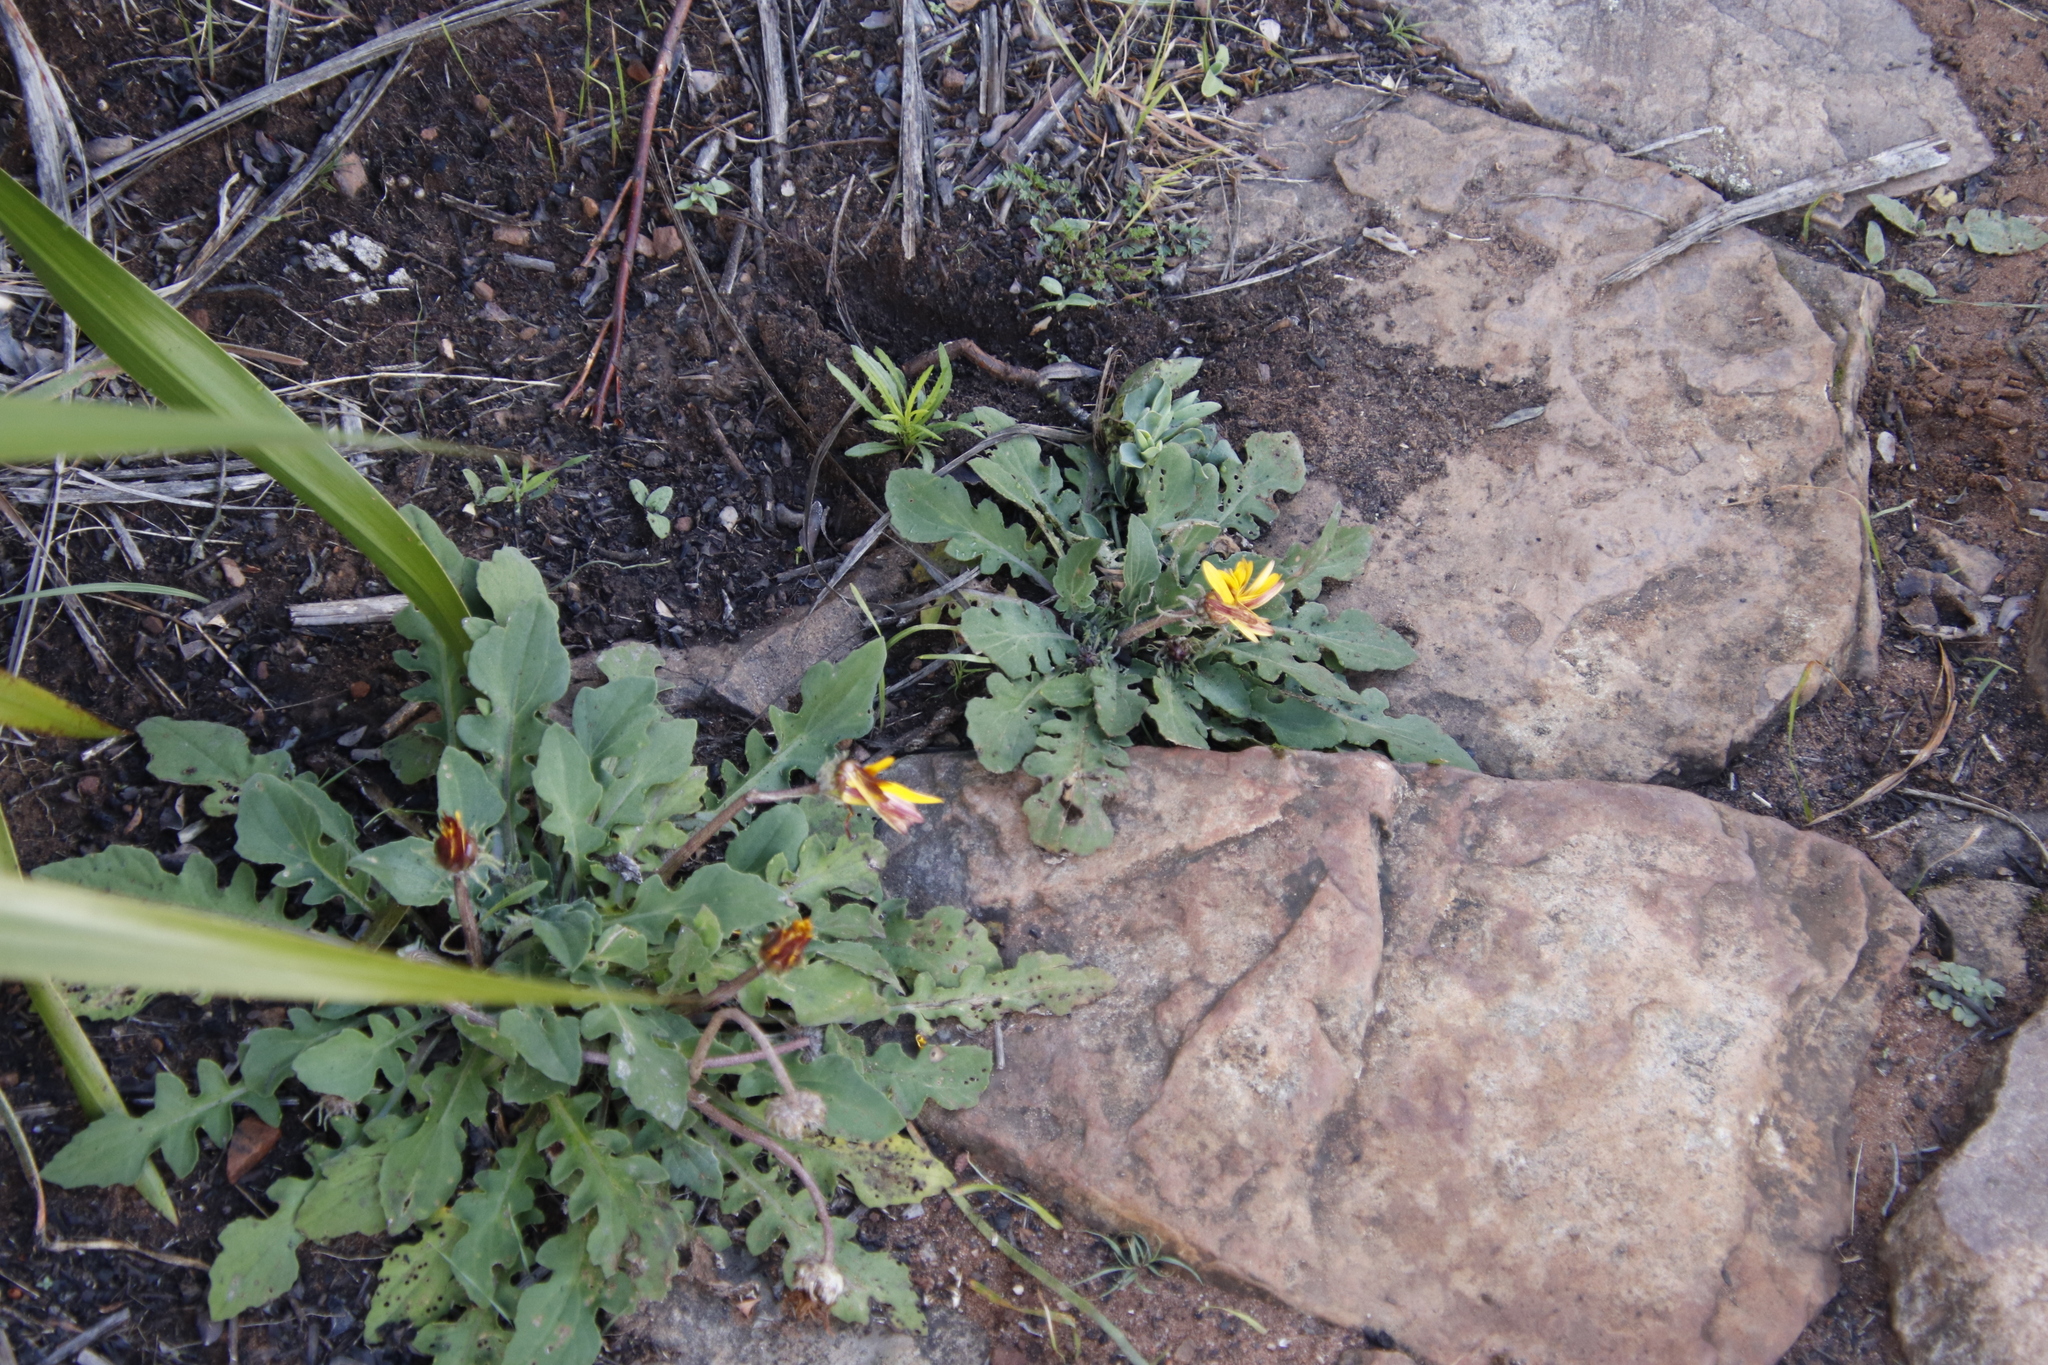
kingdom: Plantae
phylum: Tracheophyta
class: Magnoliopsida
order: Asterales
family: Asteraceae
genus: Arctotis
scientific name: Arctotis acaulis
